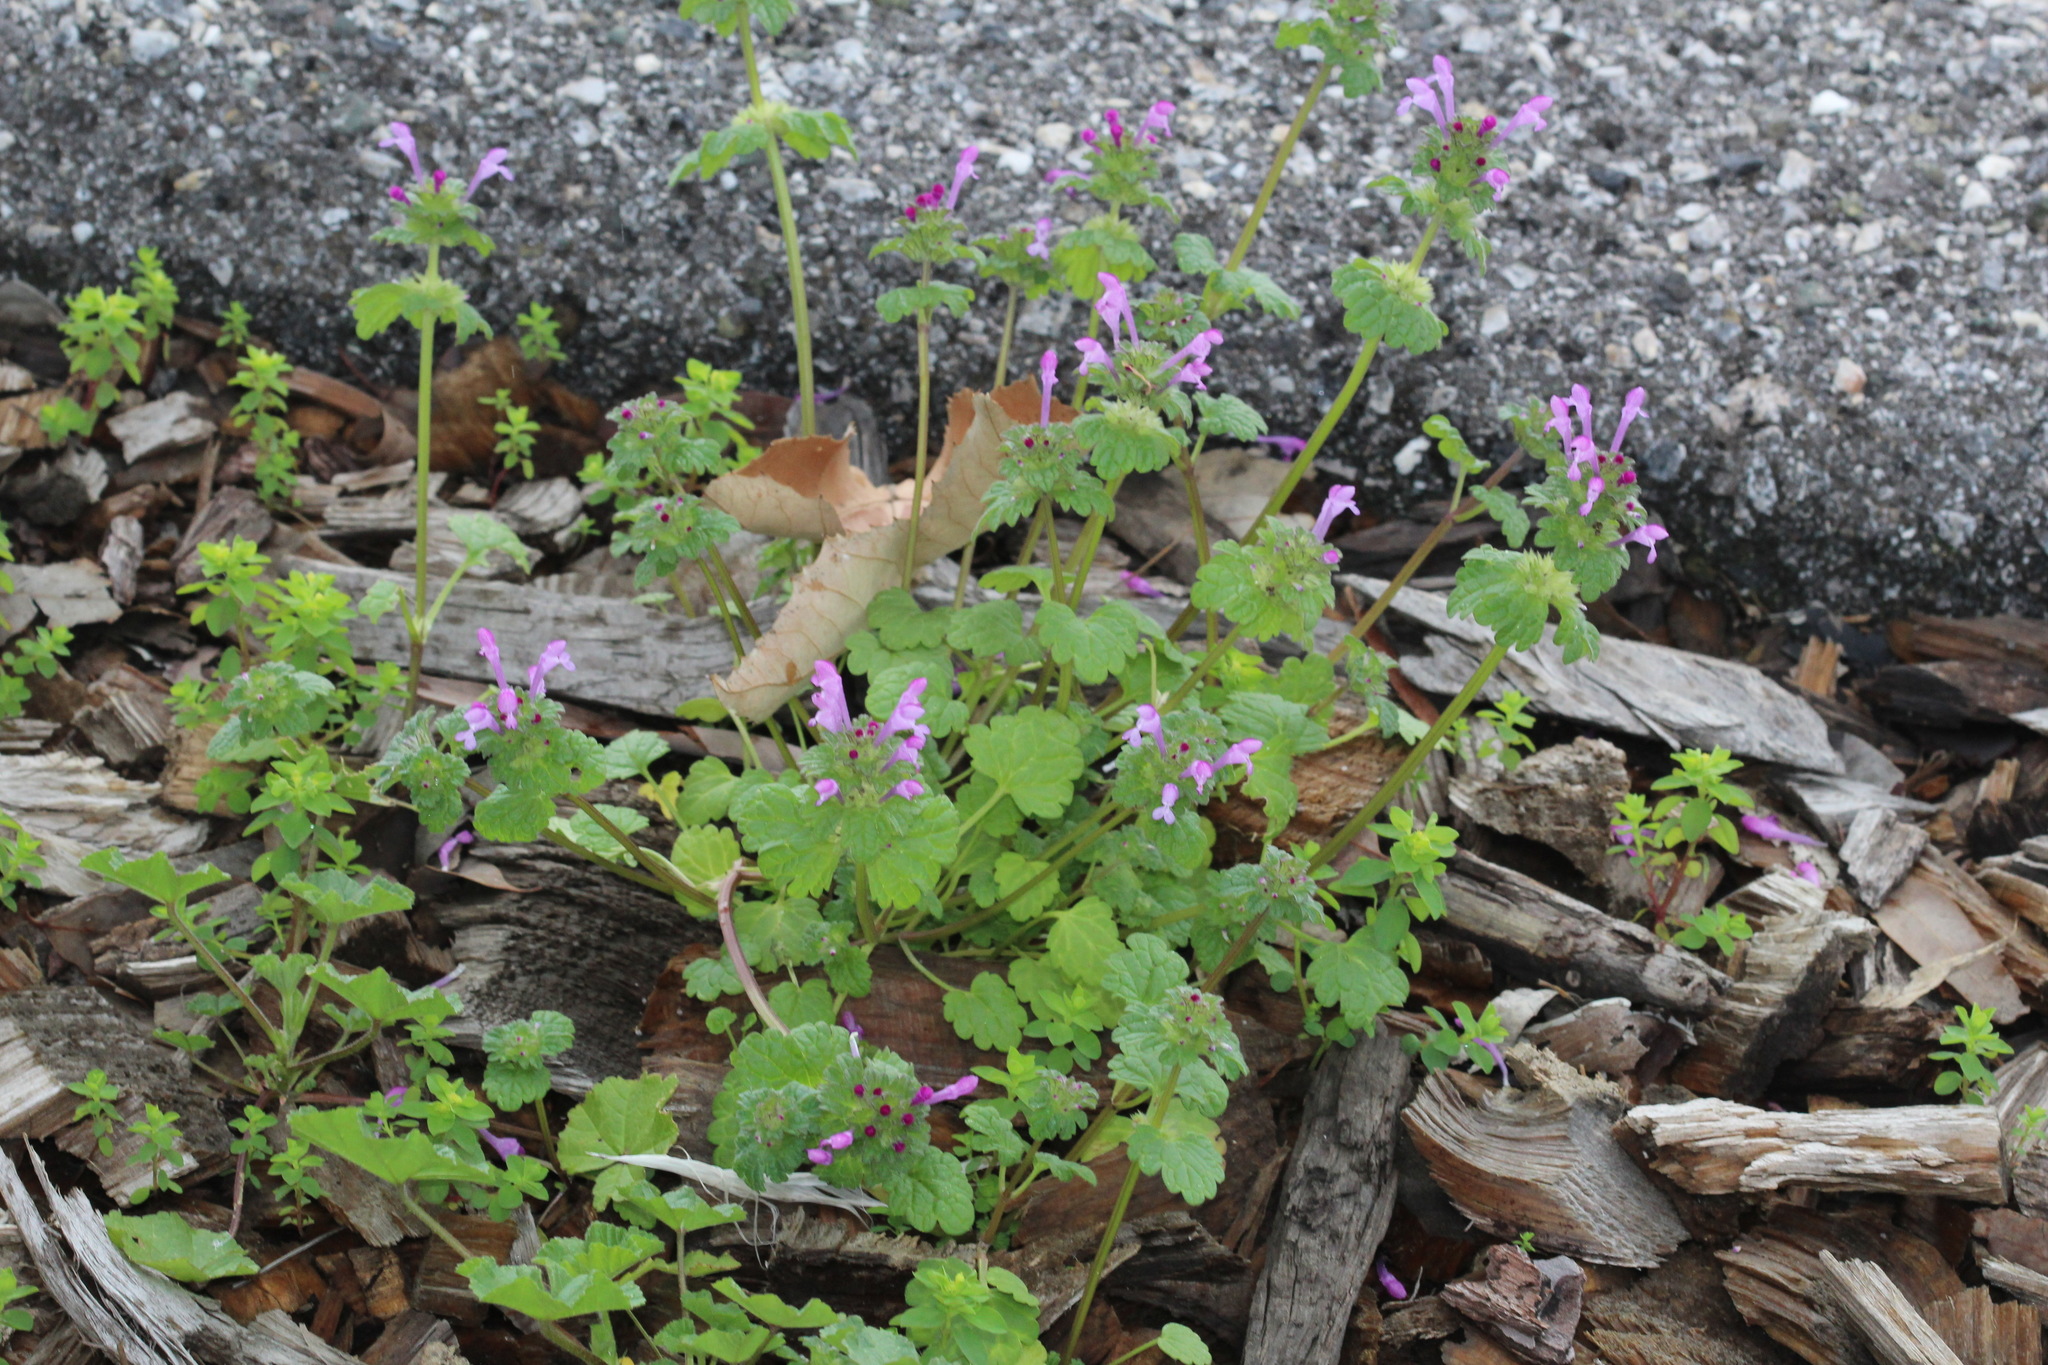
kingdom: Plantae
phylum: Tracheophyta
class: Magnoliopsida
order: Lamiales
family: Lamiaceae
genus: Lamium
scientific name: Lamium amplexicaule
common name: Henbit dead-nettle
